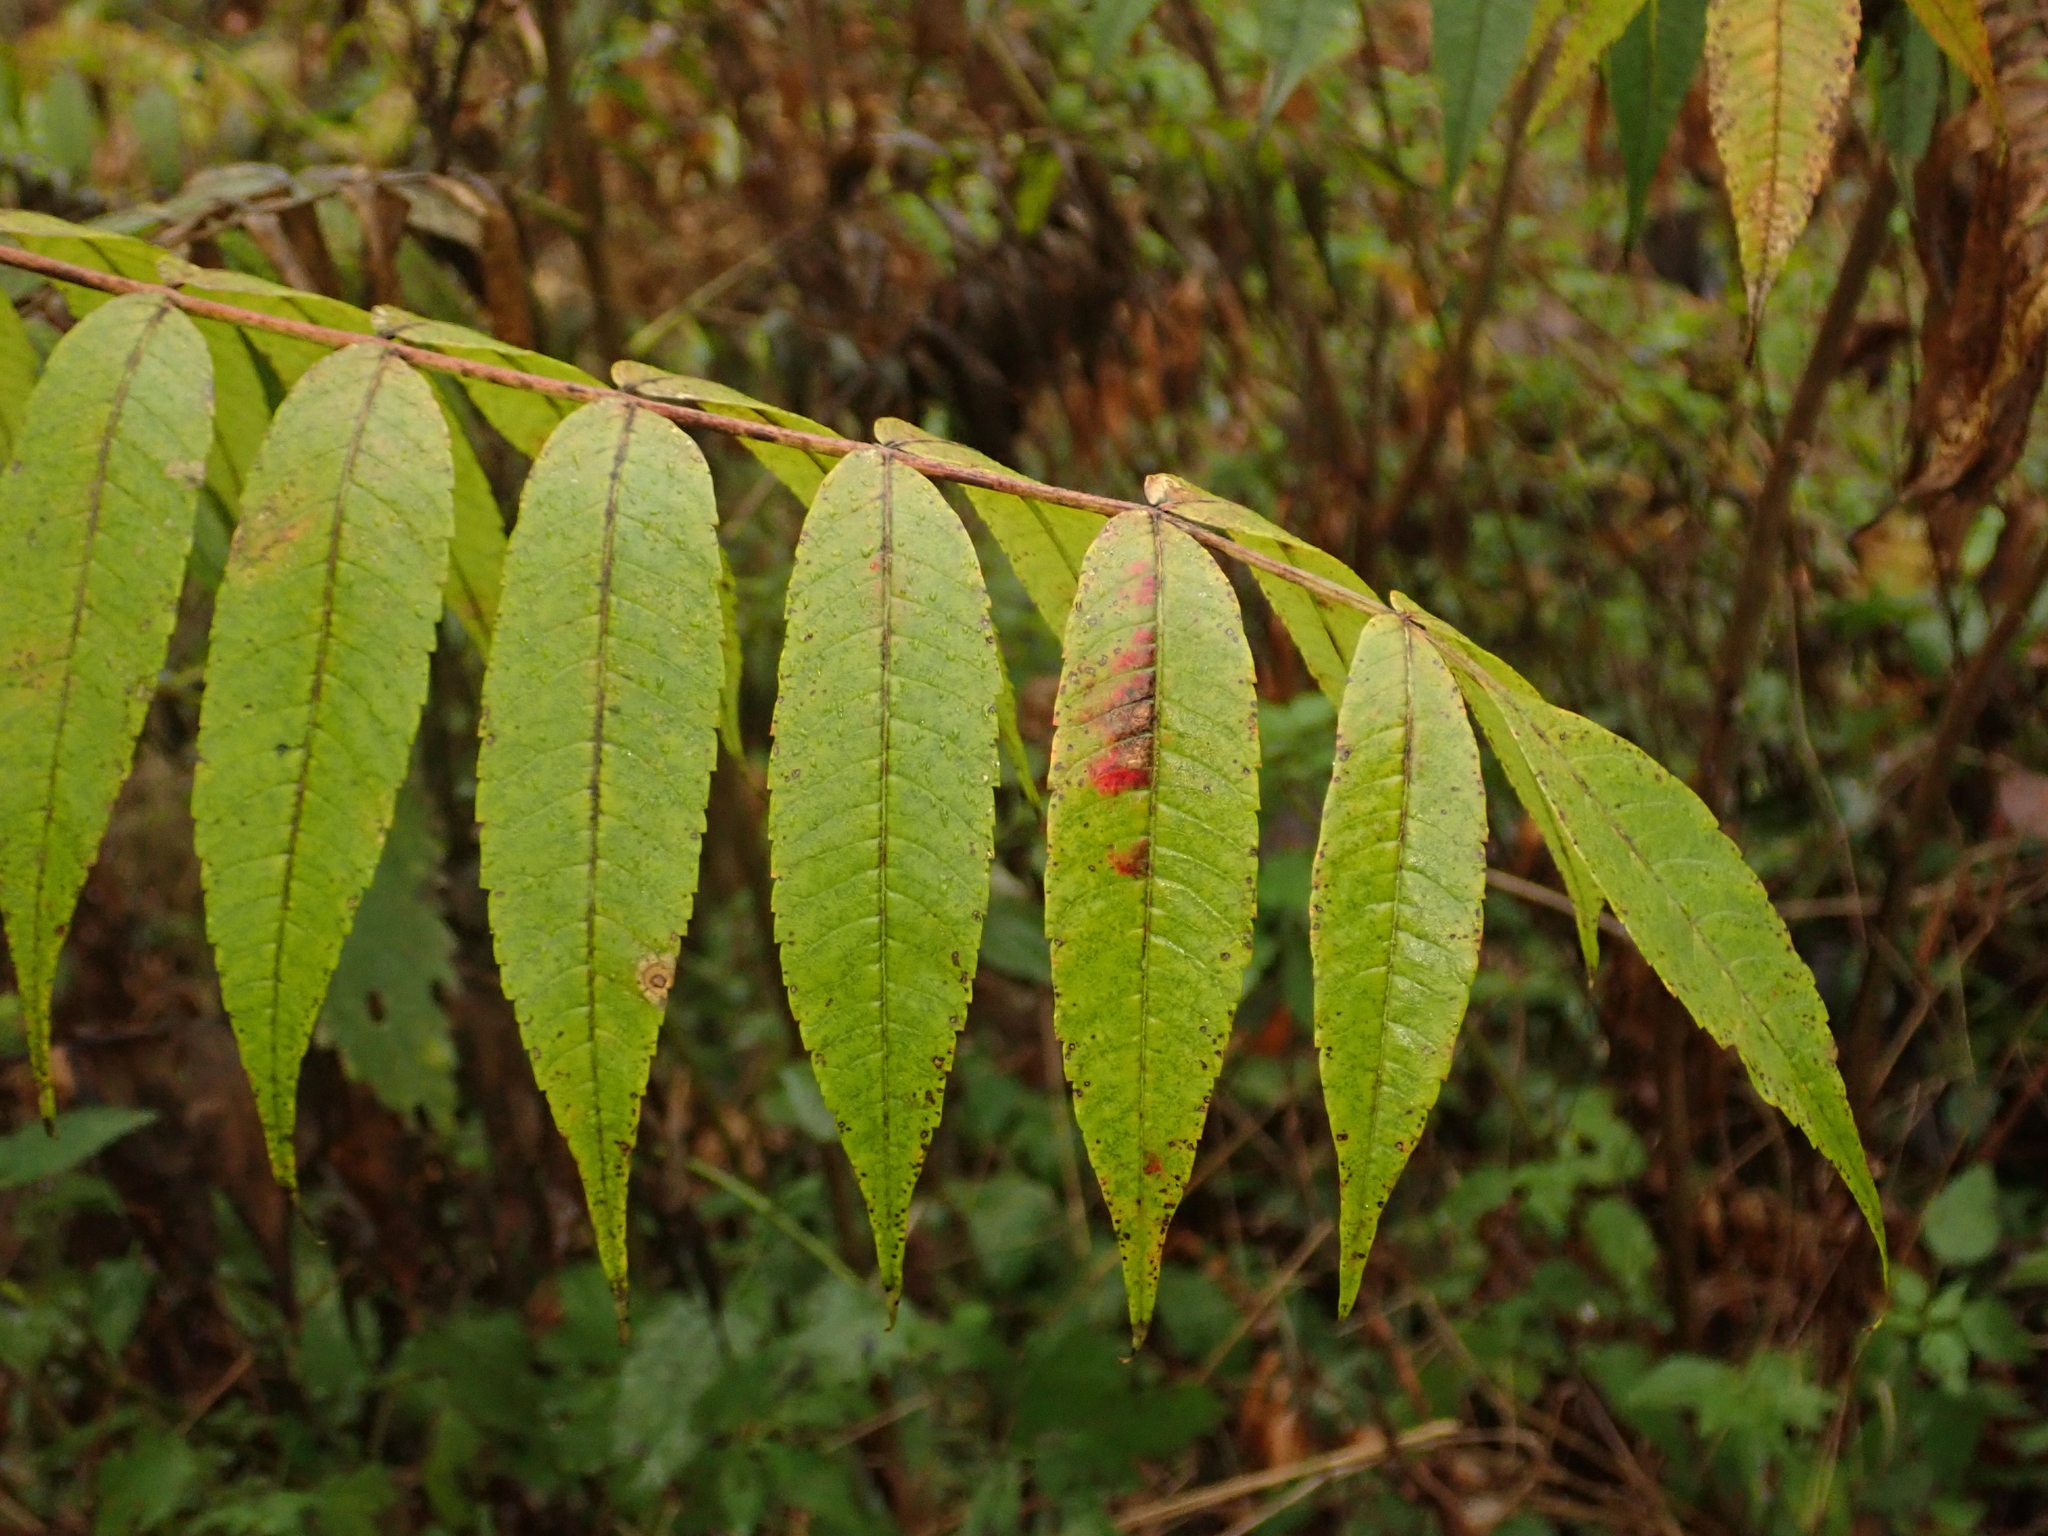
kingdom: Plantae
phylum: Tracheophyta
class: Magnoliopsida
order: Sapindales
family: Anacardiaceae
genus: Rhus
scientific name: Rhus typhina
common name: Staghorn sumac
